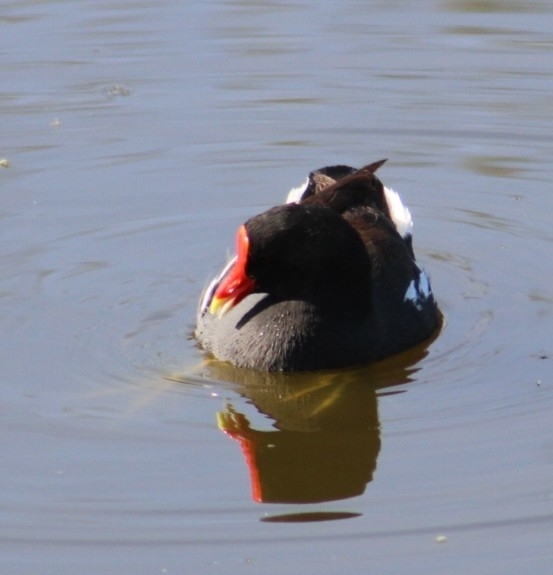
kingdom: Animalia
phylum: Chordata
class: Aves
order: Gruiformes
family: Rallidae
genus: Gallinula
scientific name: Gallinula chloropus
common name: Common moorhen
